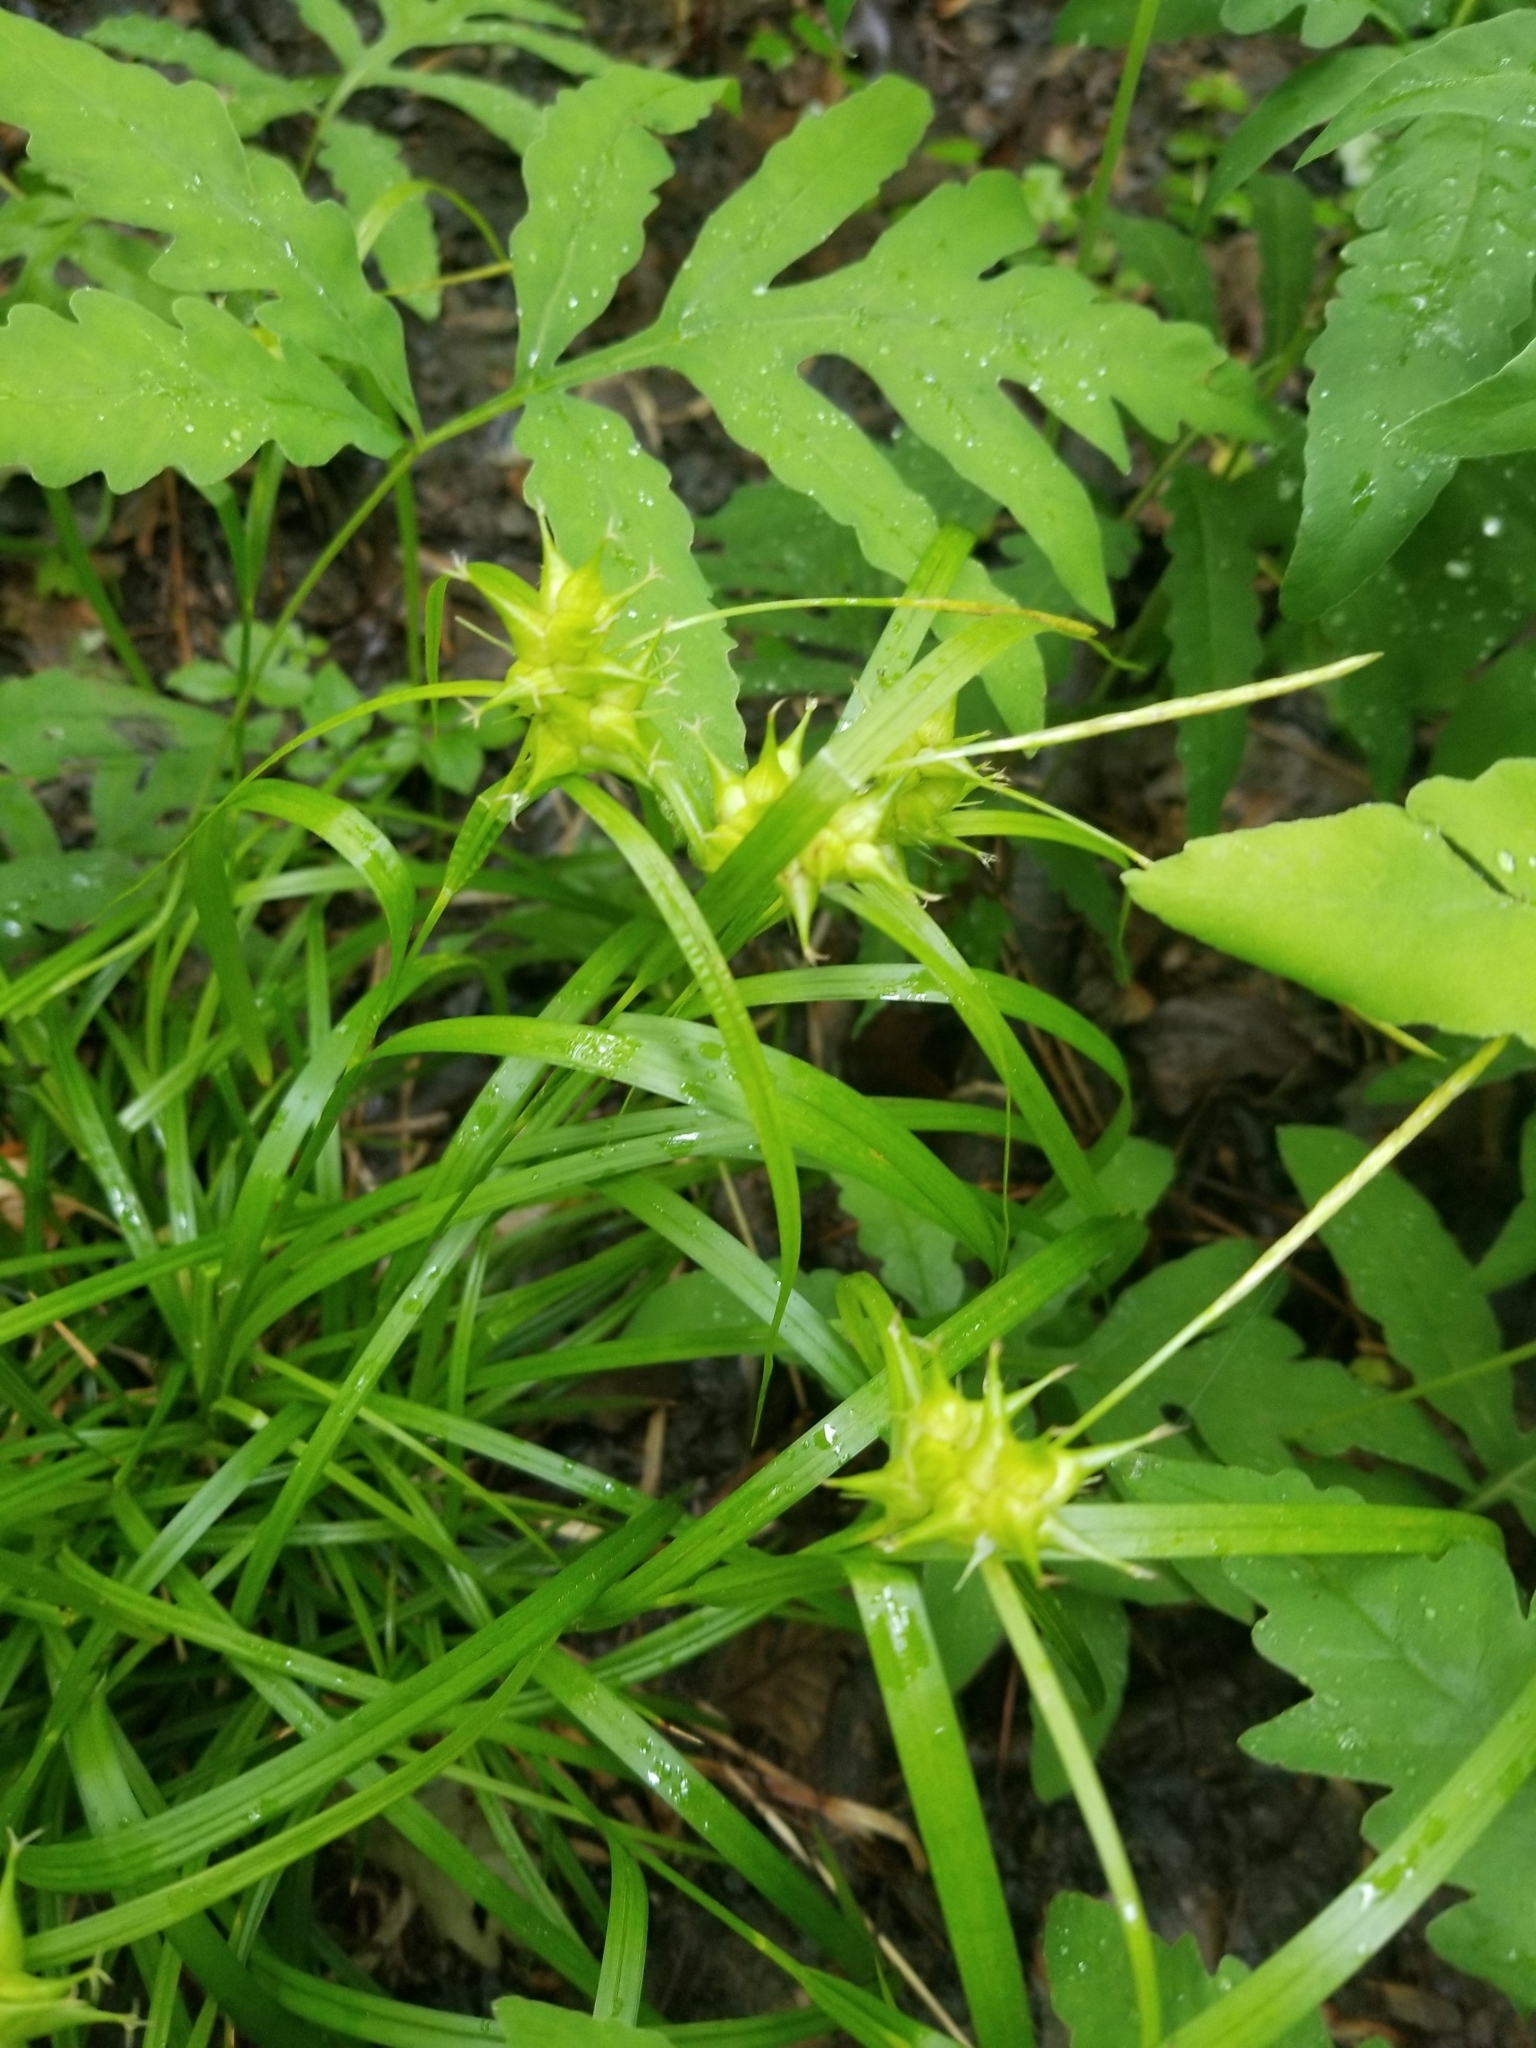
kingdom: Plantae
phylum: Tracheophyta
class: Liliopsida
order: Poales
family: Cyperaceae
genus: Carex
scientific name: Carex intumescens
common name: Greater bladder sedge
